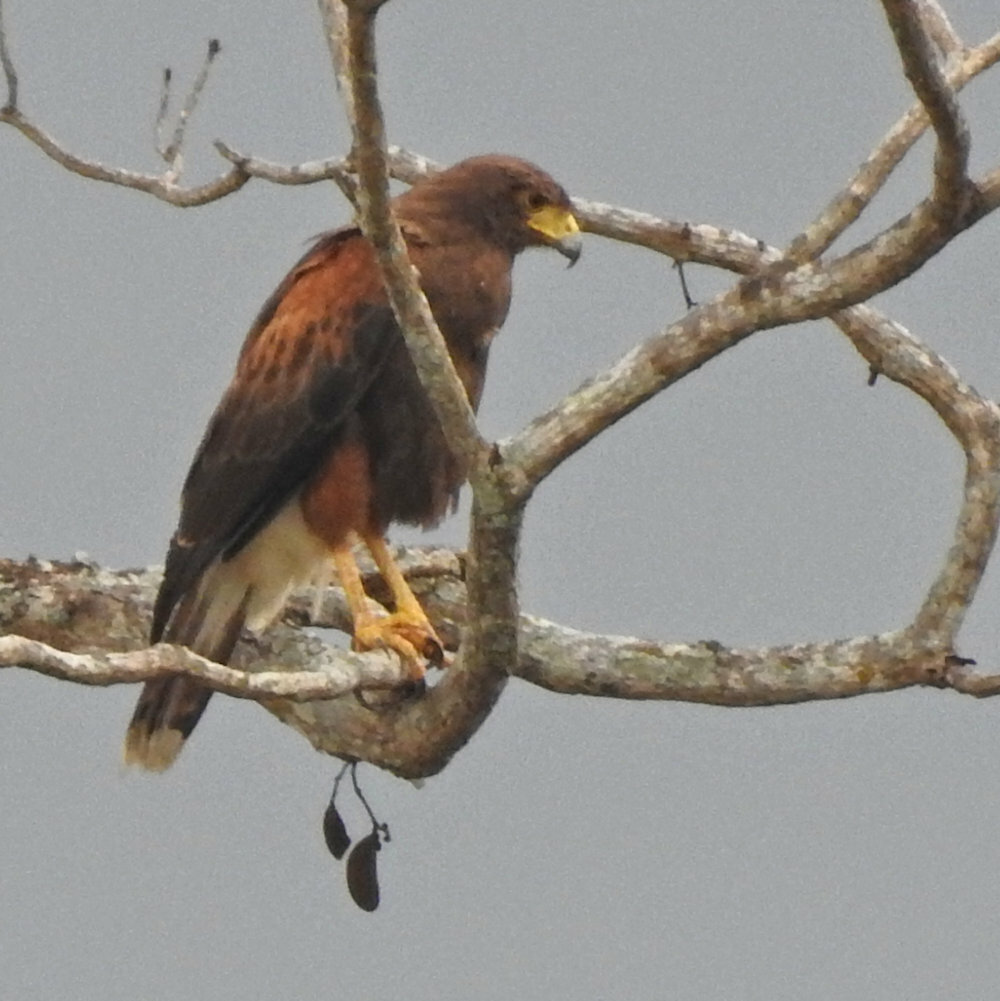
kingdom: Animalia
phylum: Chordata
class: Aves
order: Accipitriformes
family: Accipitridae
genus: Parabuteo
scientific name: Parabuteo unicinctus
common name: Harris's hawk
